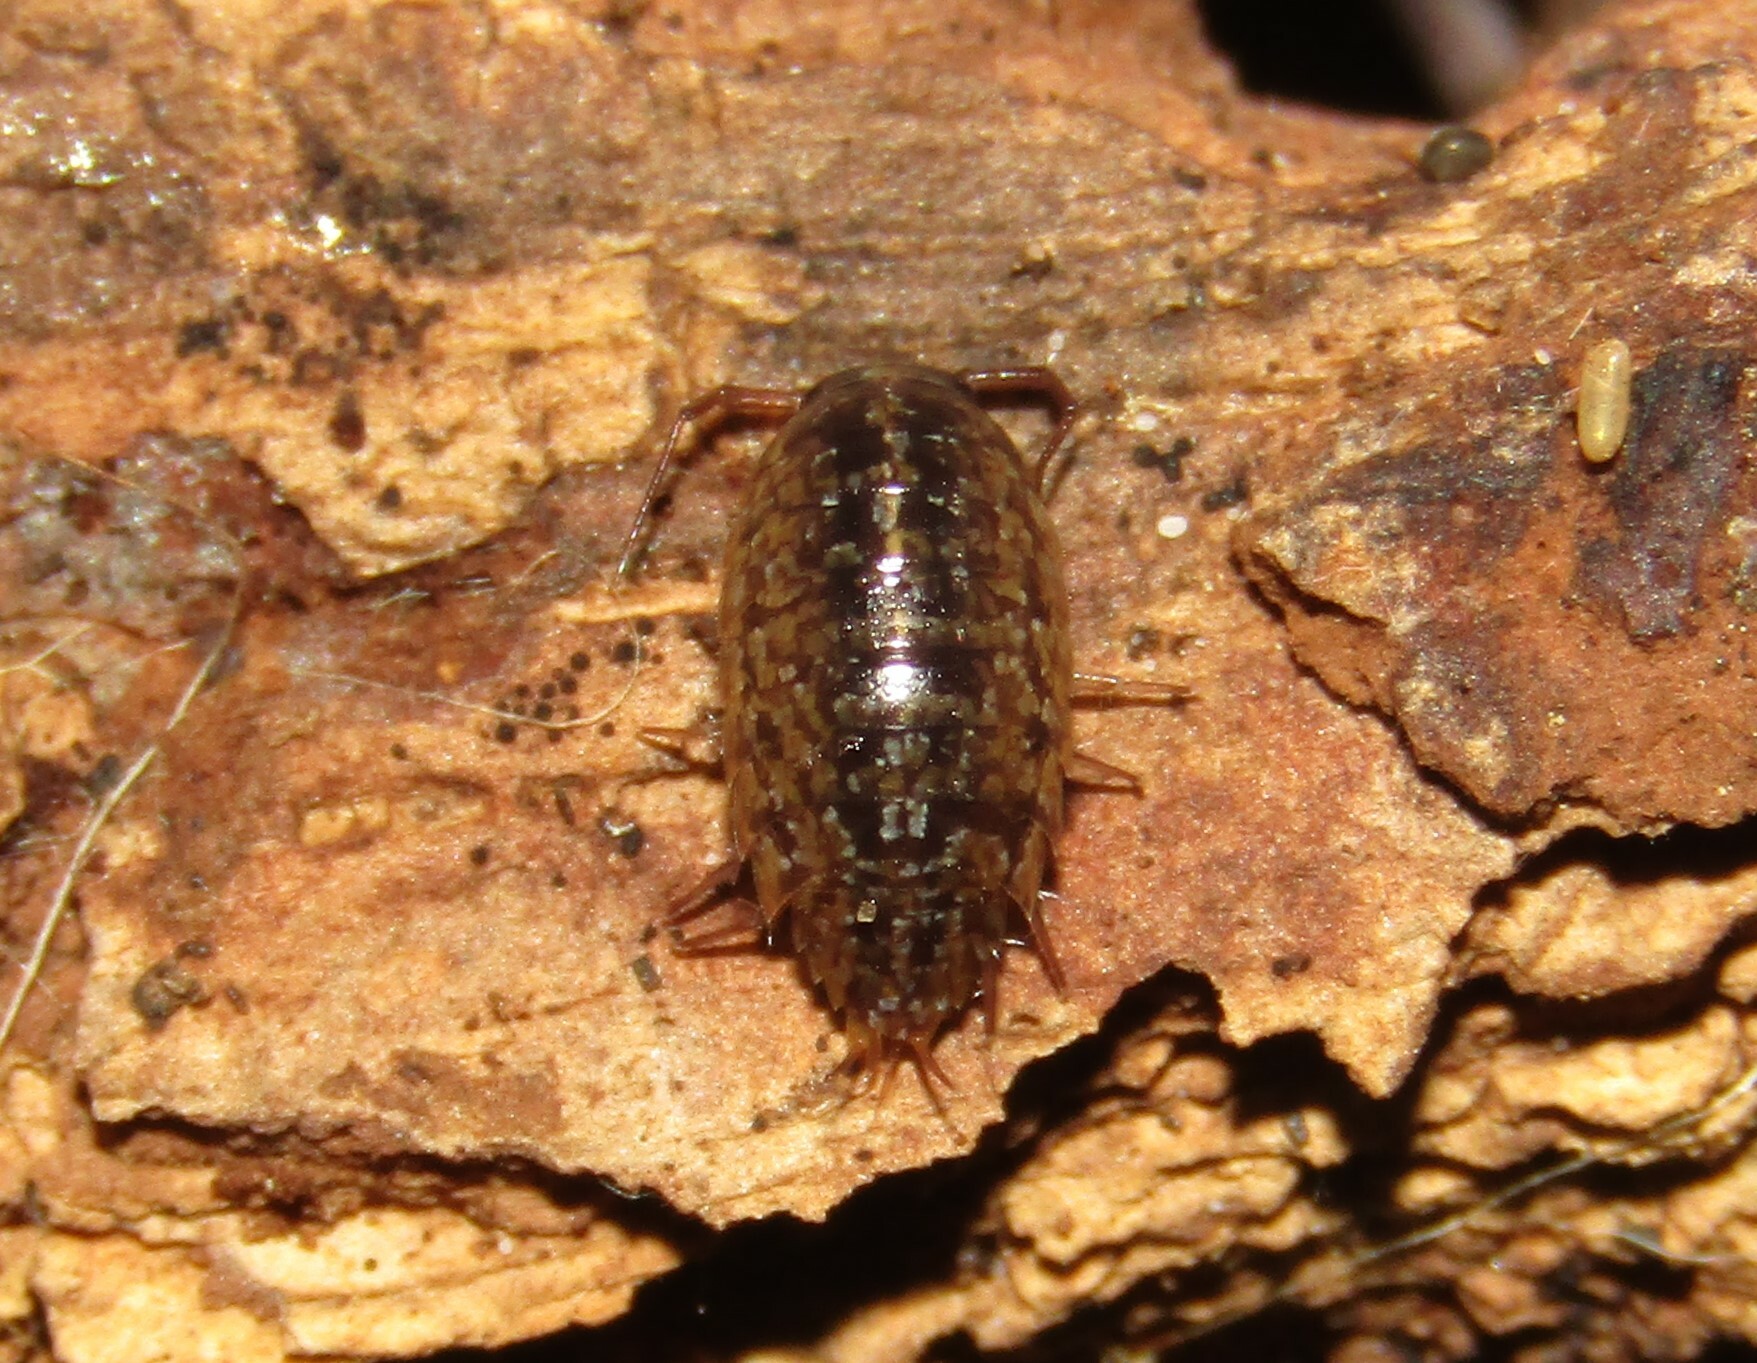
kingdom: Animalia
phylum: Arthropoda
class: Malacostraca
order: Isopoda
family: Ligiidae
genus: Ligidium
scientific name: Ligidium hypnorum
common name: Moss slater
